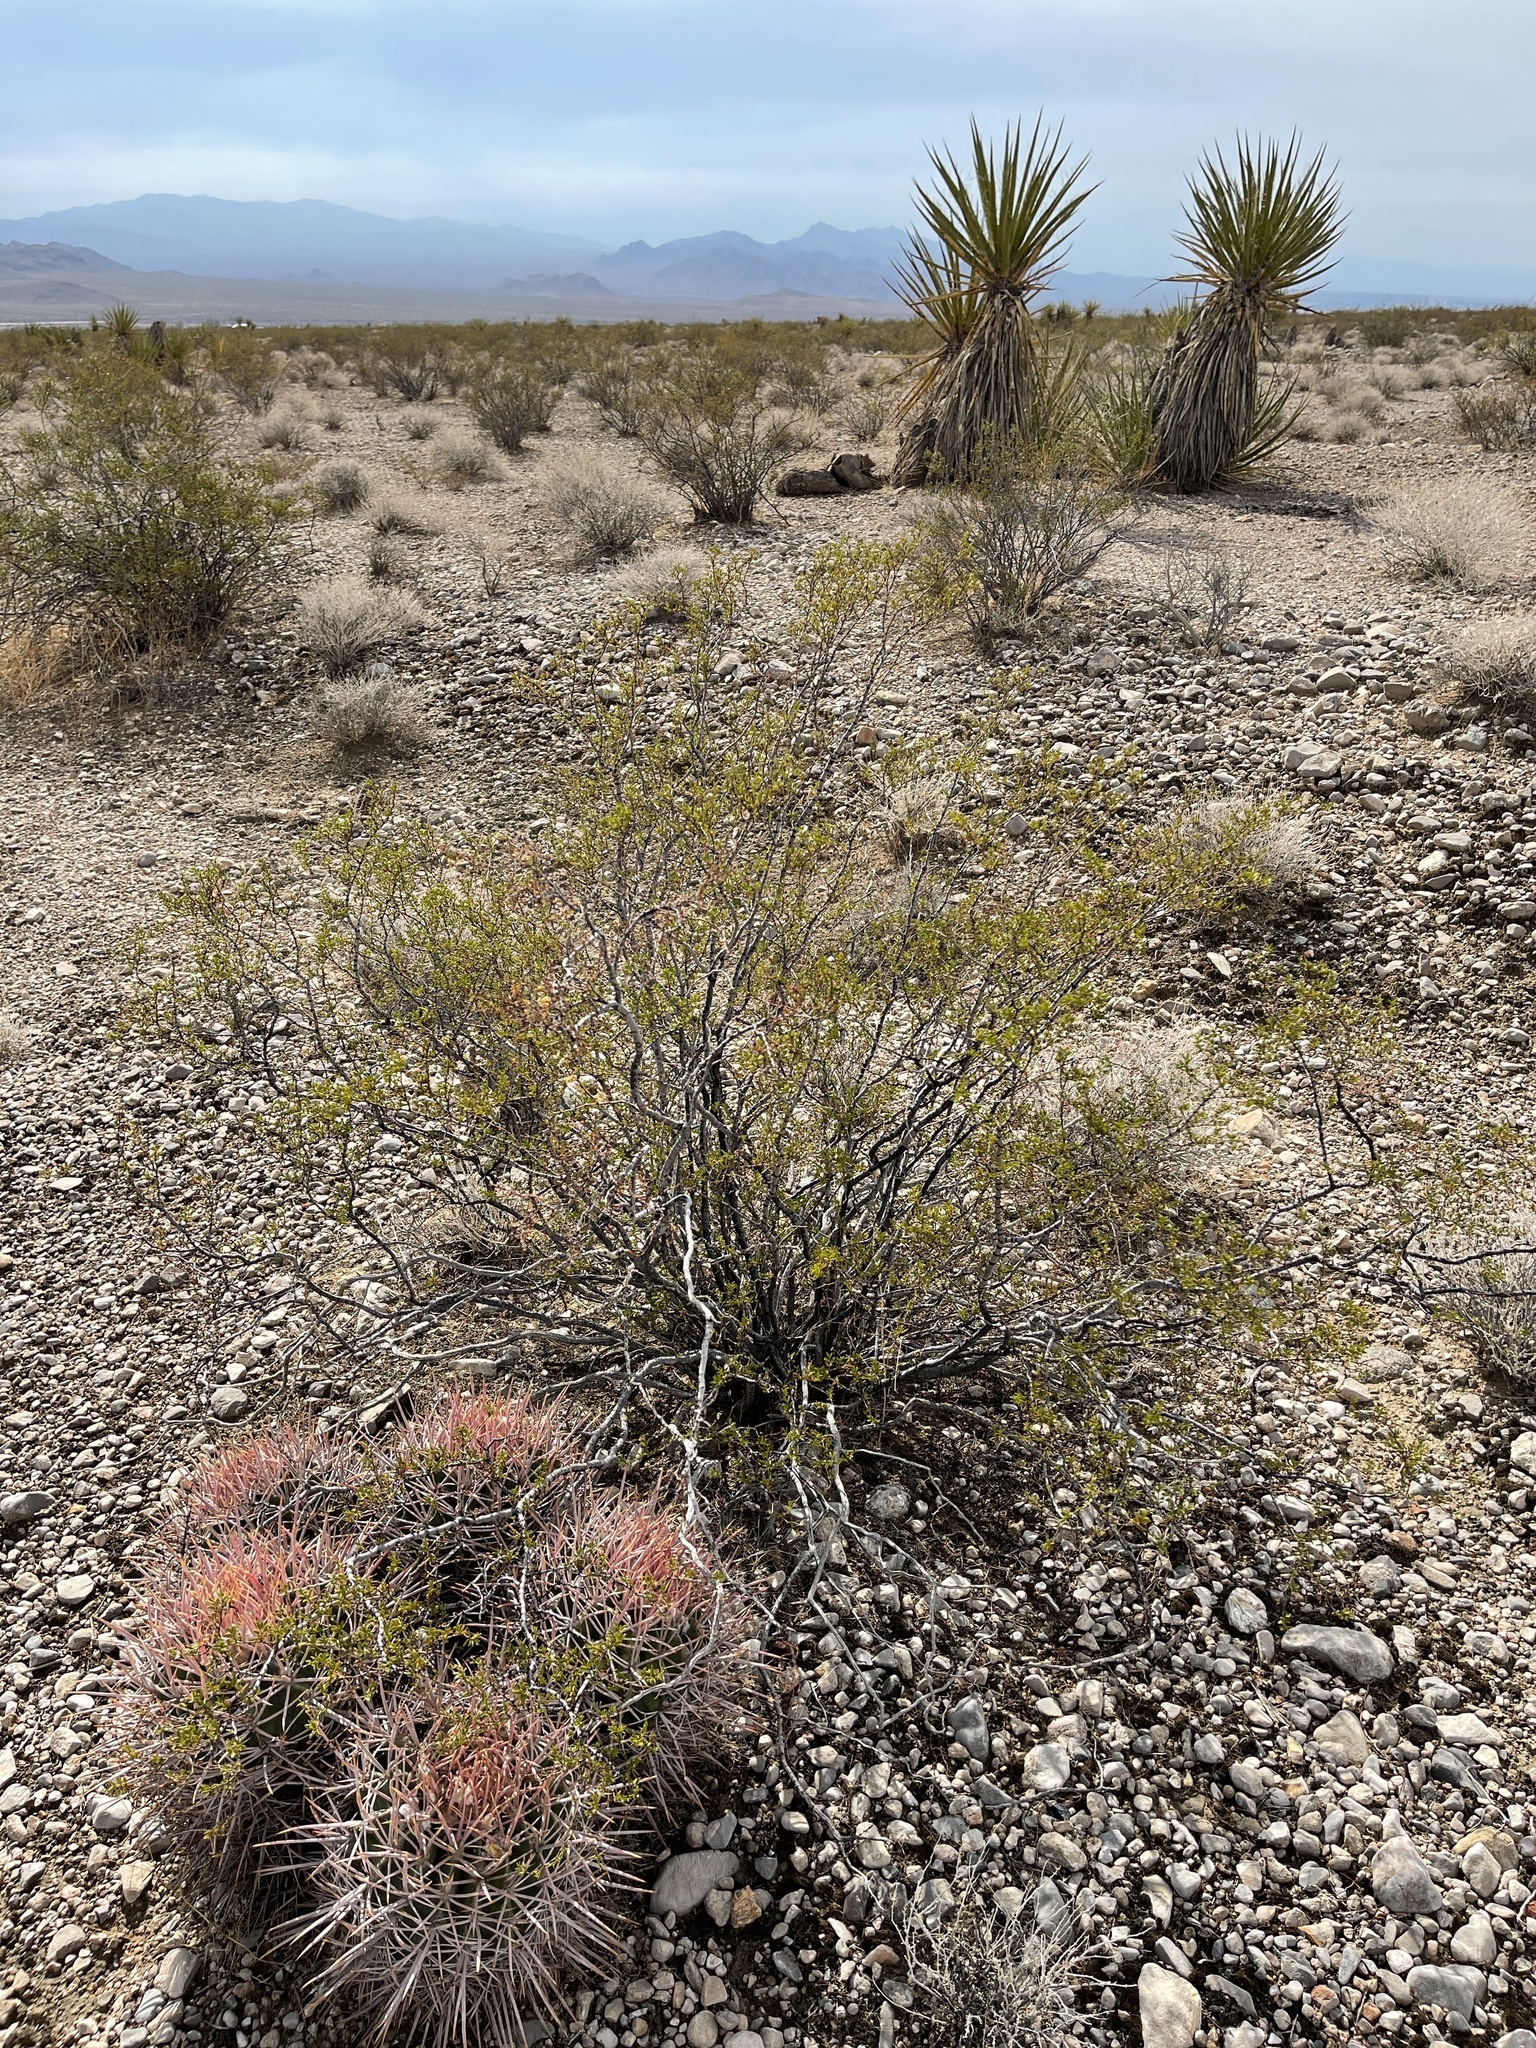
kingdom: Plantae
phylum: Tracheophyta
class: Magnoliopsida
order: Zygophyllales
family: Zygophyllaceae
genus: Larrea
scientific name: Larrea tridentata
